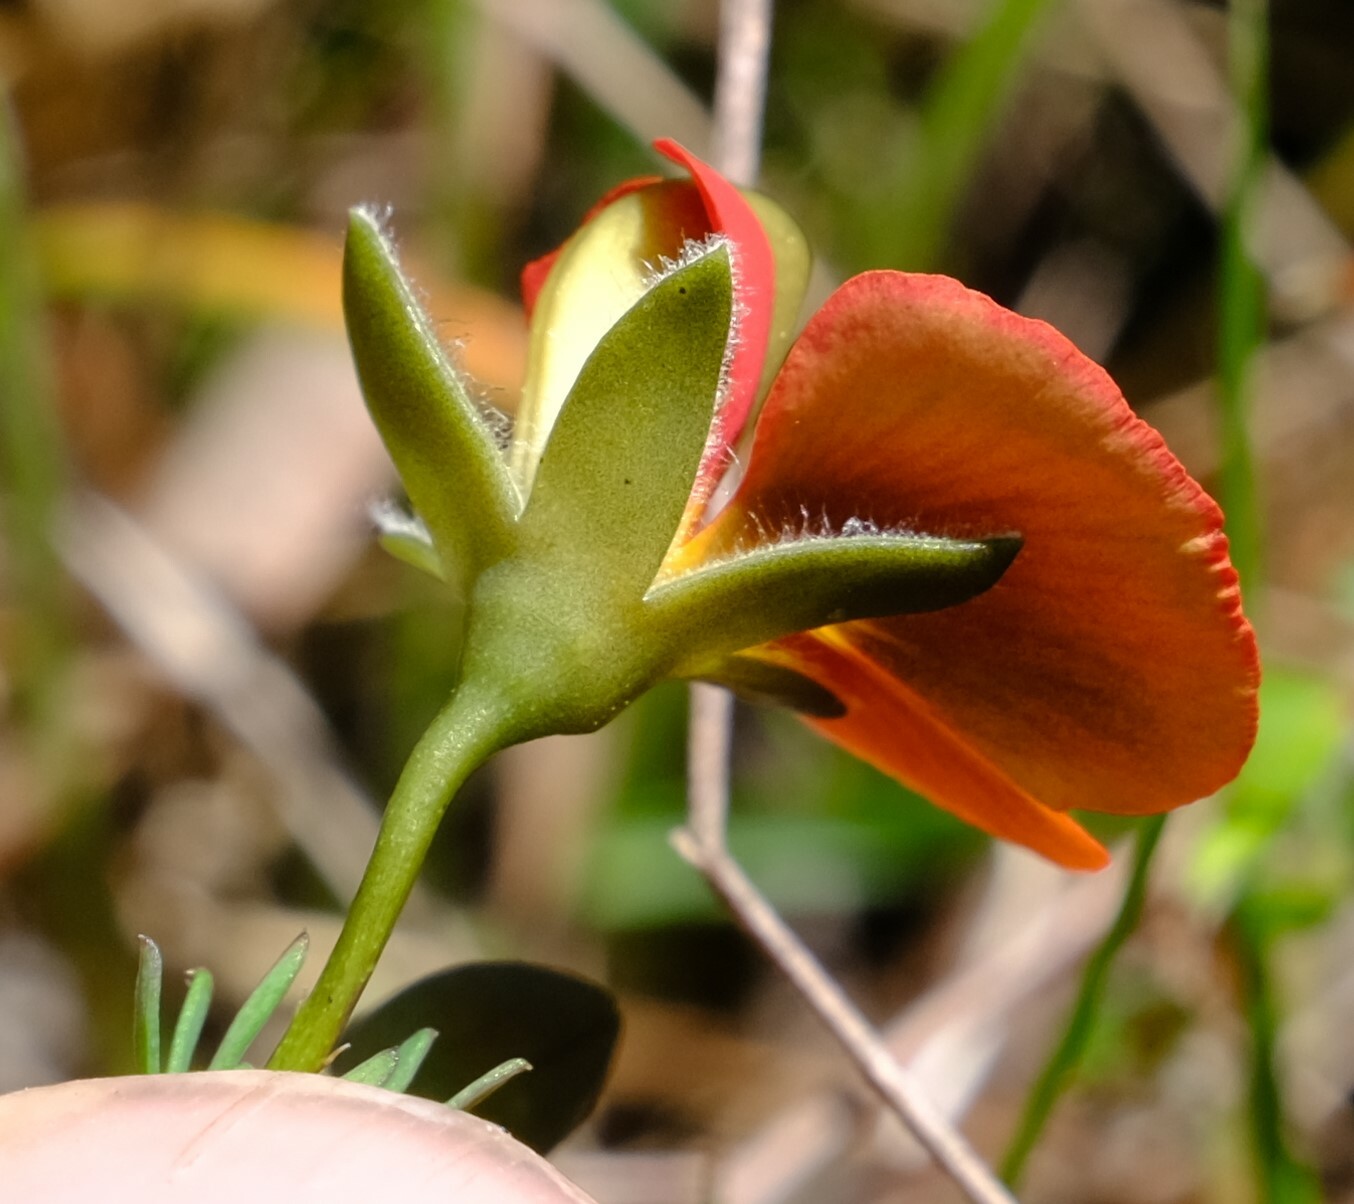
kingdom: Plantae
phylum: Tracheophyta
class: Magnoliopsida
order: Fabales
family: Fabaceae
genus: Gompholobium
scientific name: Gompholobium ecostatum
